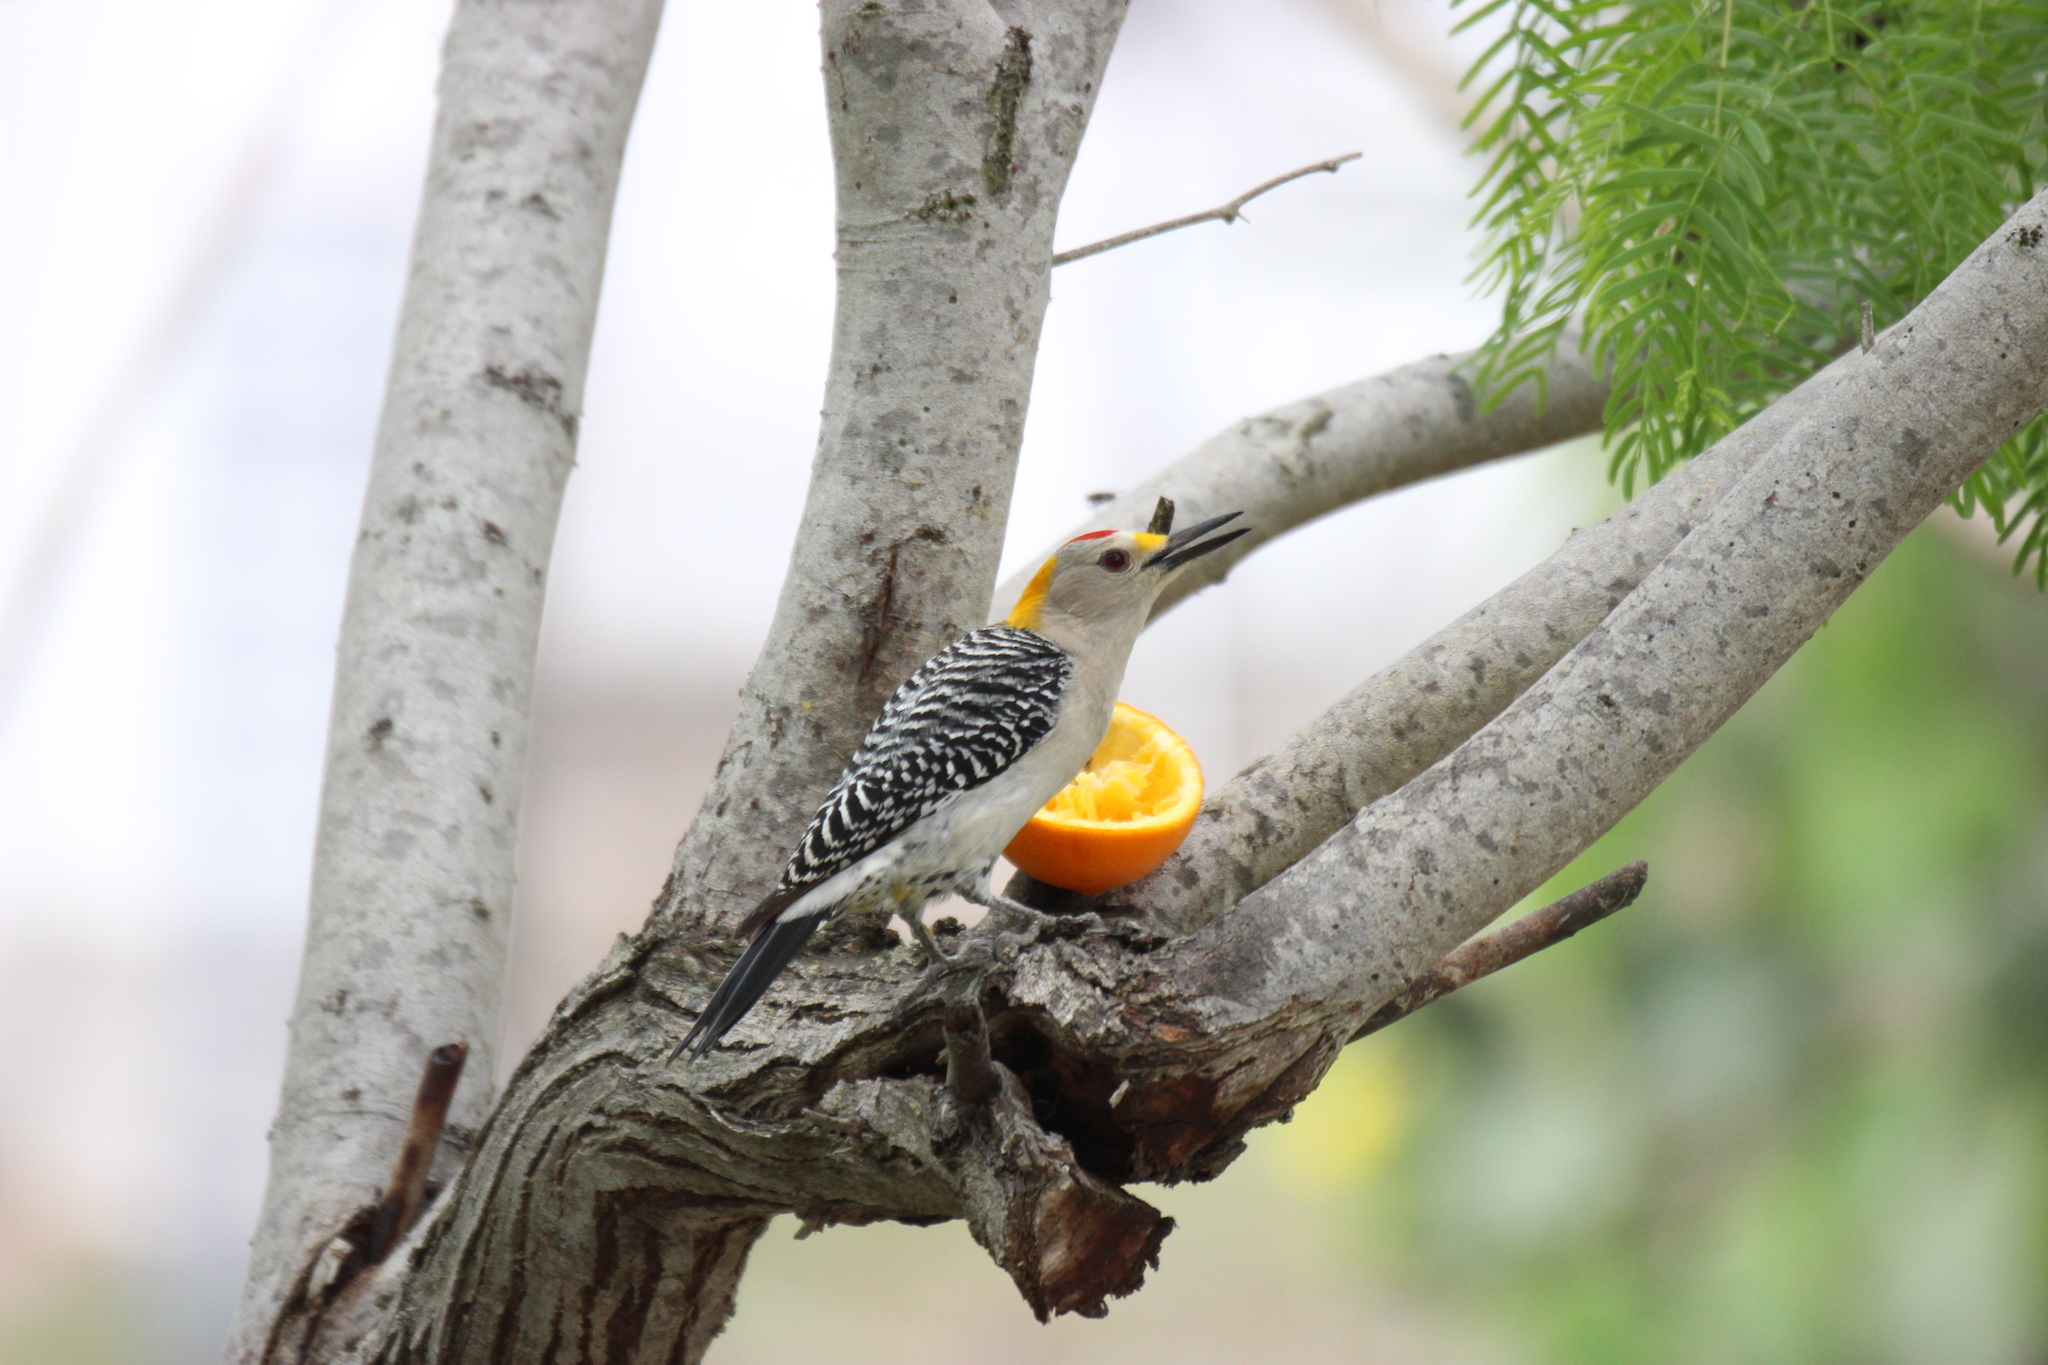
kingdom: Animalia
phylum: Chordata
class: Aves
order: Piciformes
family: Picidae
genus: Melanerpes
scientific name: Melanerpes aurifrons
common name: Golden-fronted woodpecker
